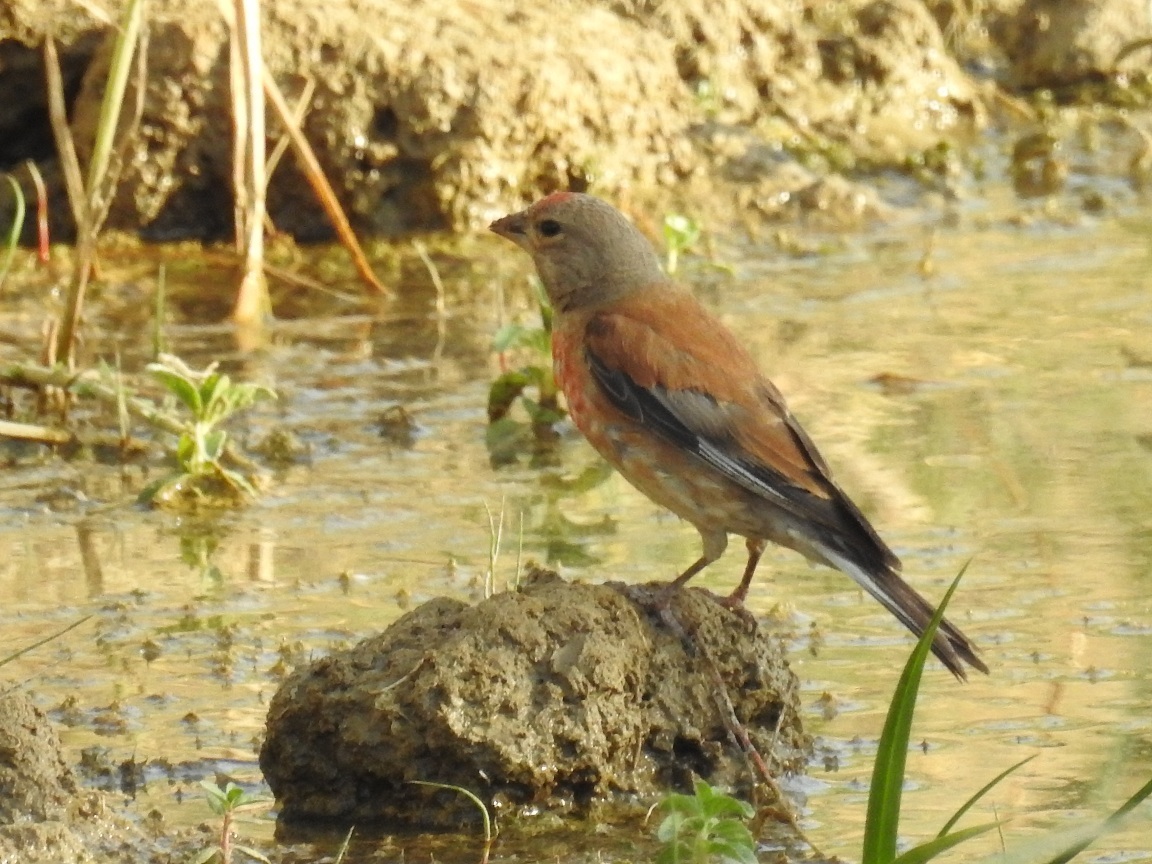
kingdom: Animalia
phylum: Chordata
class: Aves
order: Passeriformes
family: Fringillidae
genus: Linaria
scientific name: Linaria cannabina
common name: Common linnet
